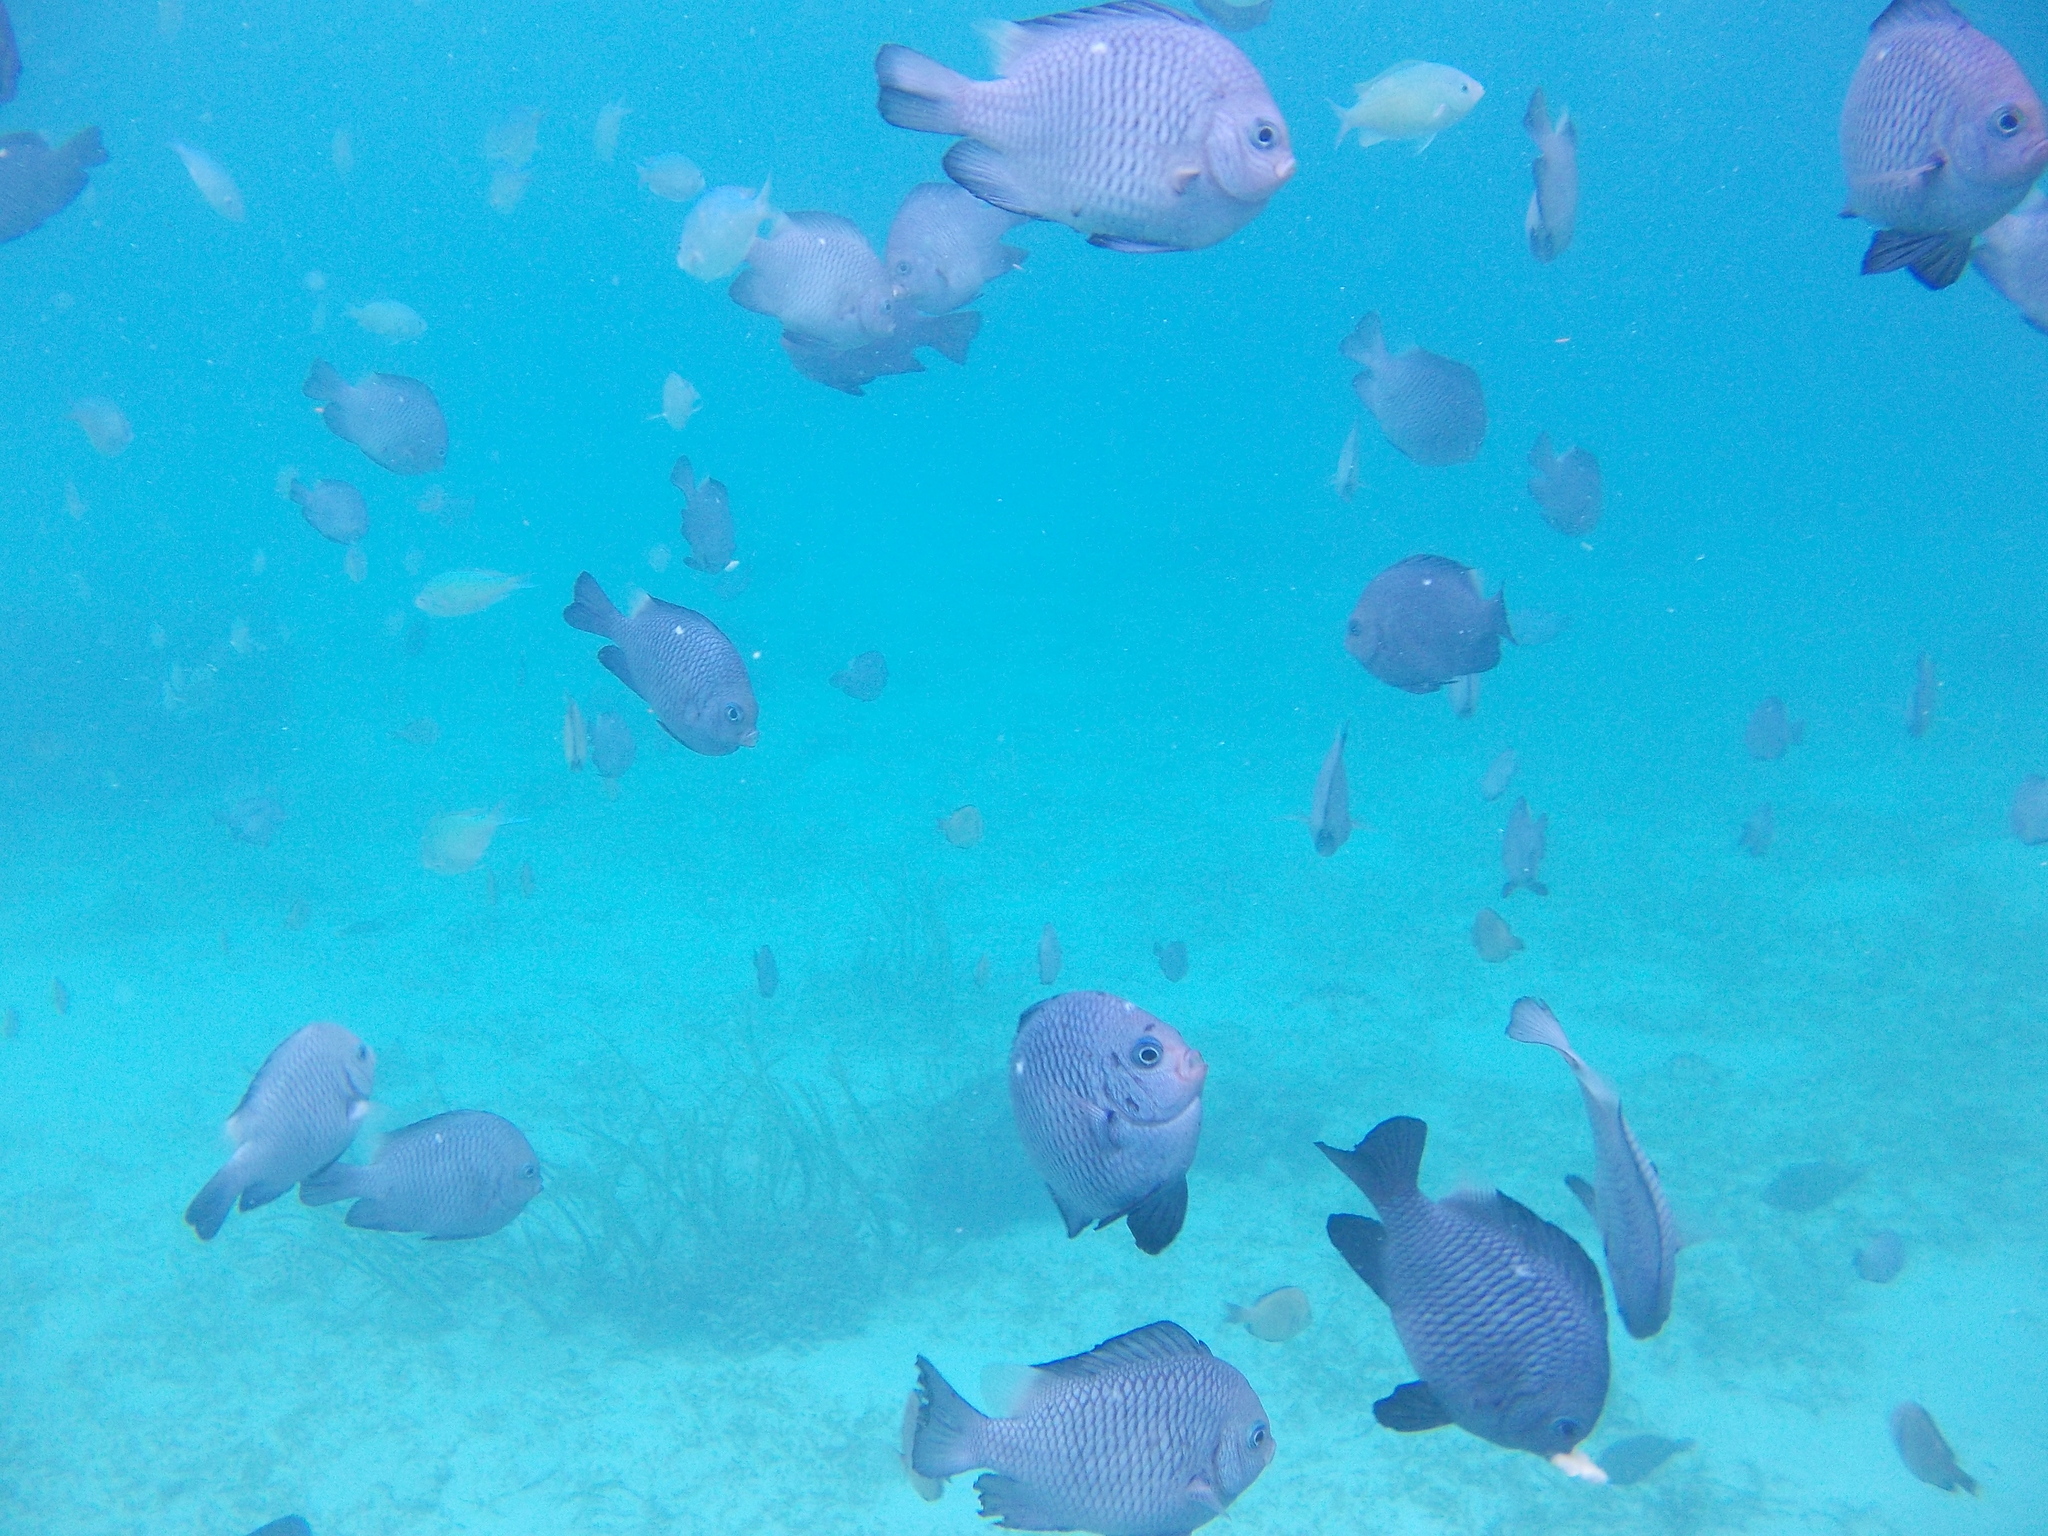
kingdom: Animalia
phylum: Chordata
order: Perciformes
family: Pomacentridae
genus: Dascyllus
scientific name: Dascyllus trimaculatus
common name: Threespot dascyllus
